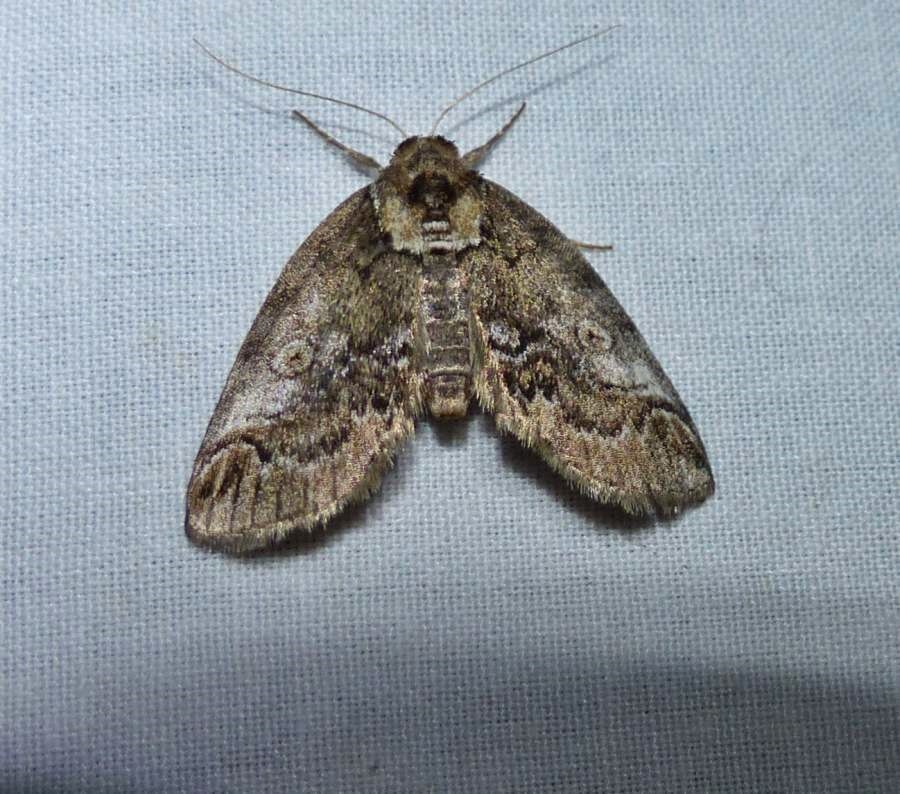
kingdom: Animalia
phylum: Arthropoda
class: Insecta
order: Lepidoptera
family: Nolidae
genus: Baileya
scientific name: Baileya ophthalmica
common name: Eyed baileya moth
